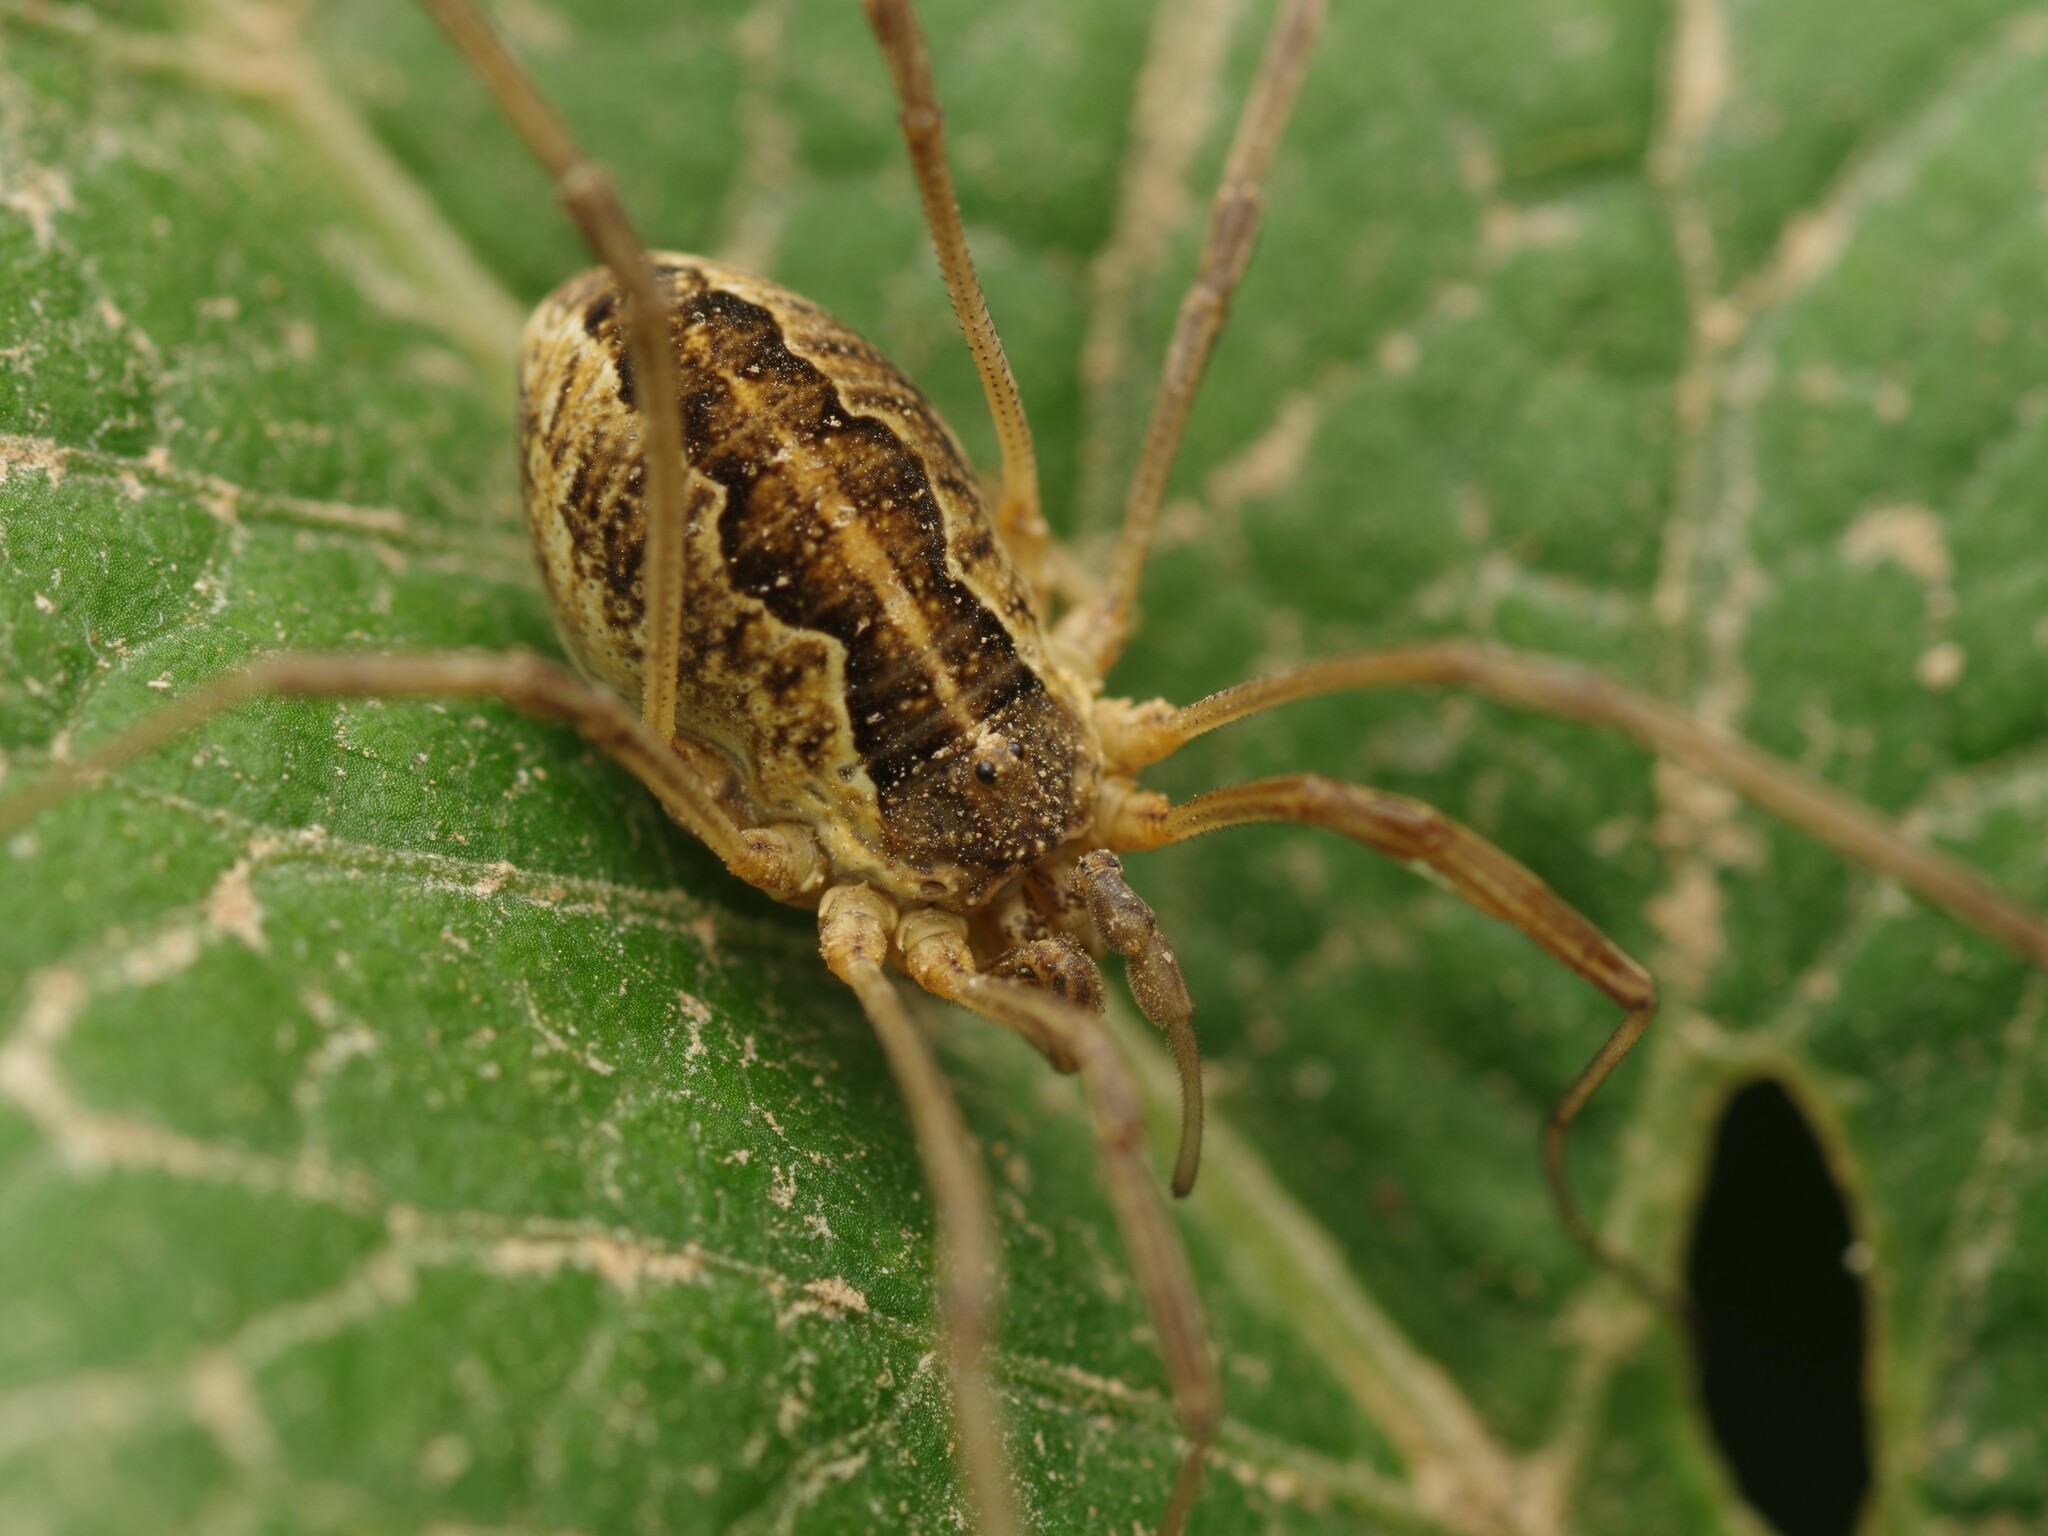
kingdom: Animalia
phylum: Arthropoda
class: Arachnida
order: Opiliones
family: Phalangiidae
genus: Mitopus
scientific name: Mitopus morio
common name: Saddleback harvestman
